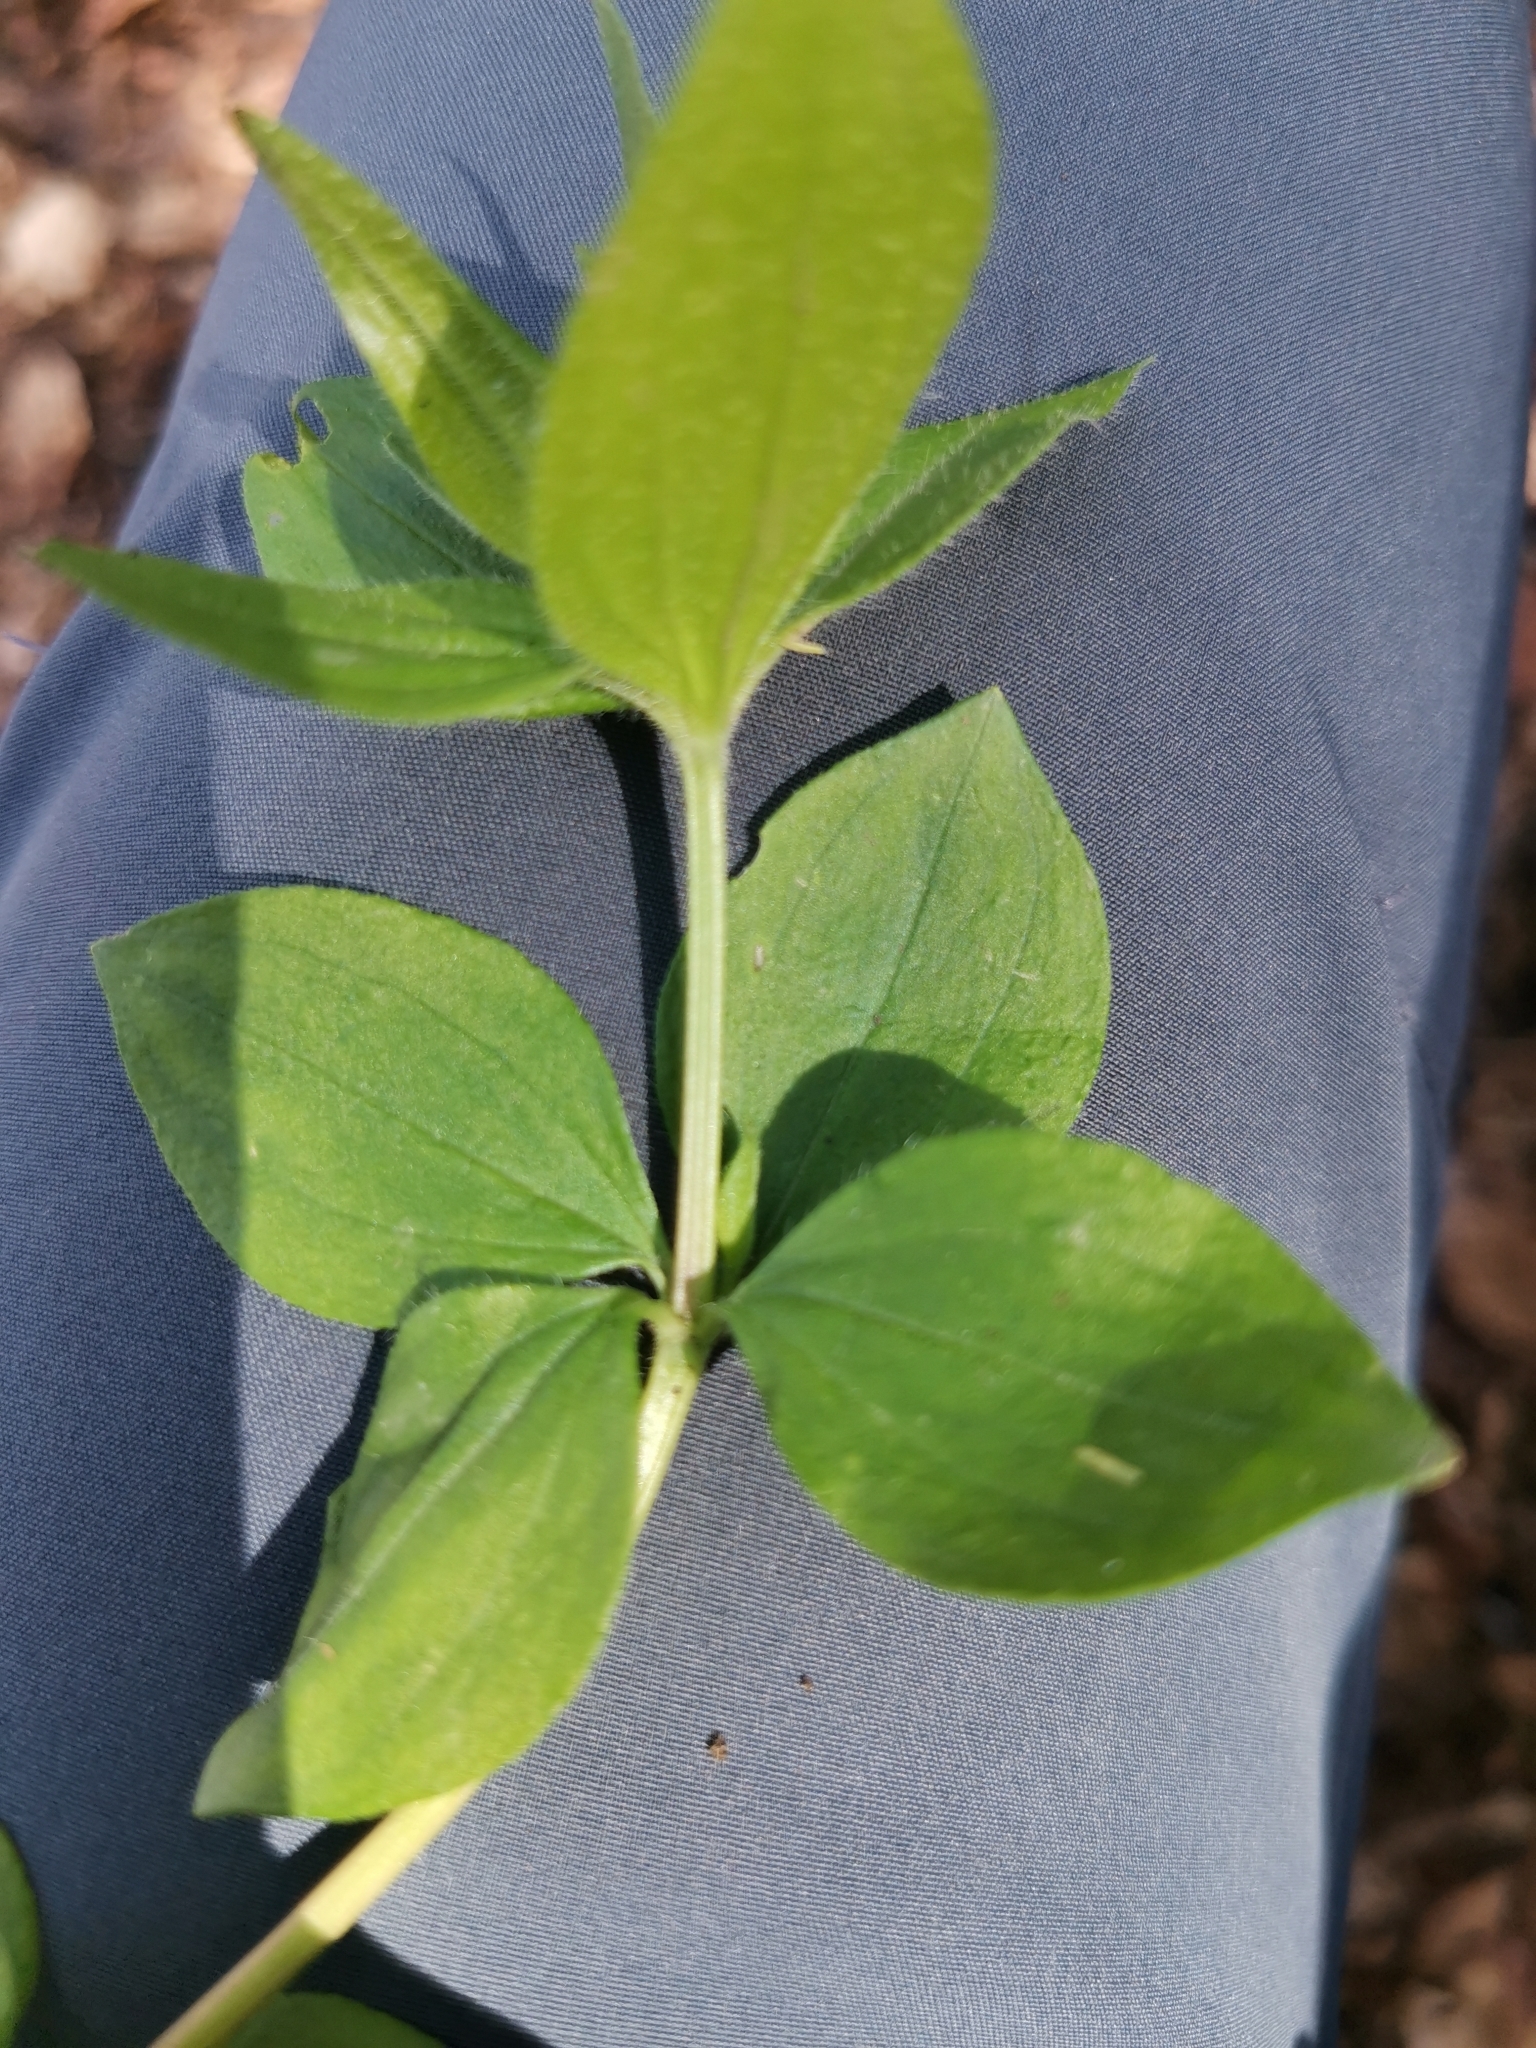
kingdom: Plantae
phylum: Tracheophyta
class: Magnoliopsida
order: Gentianales
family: Rubiaceae
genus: Asperula
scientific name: Asperula taurina
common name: Pink woodruff
